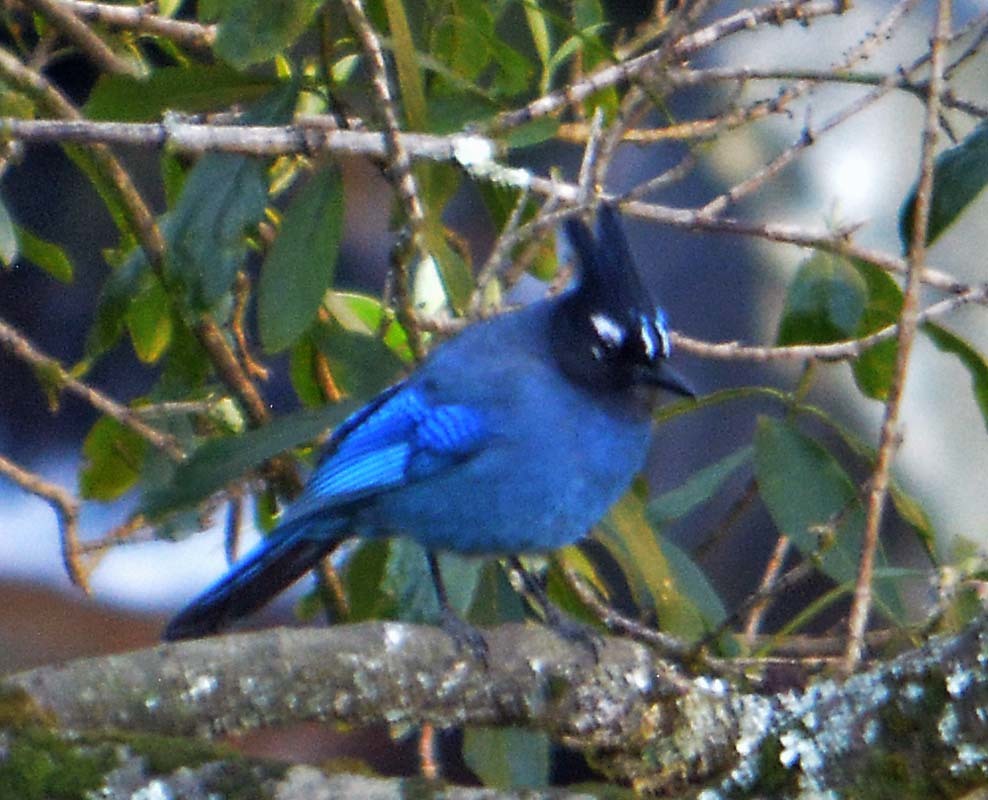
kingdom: Animalia
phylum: Chordata
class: Aves
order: Passeriformes
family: Corvidae
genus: Cyanocitta
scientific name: Cyanocitta stelleri
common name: Steller's jay
